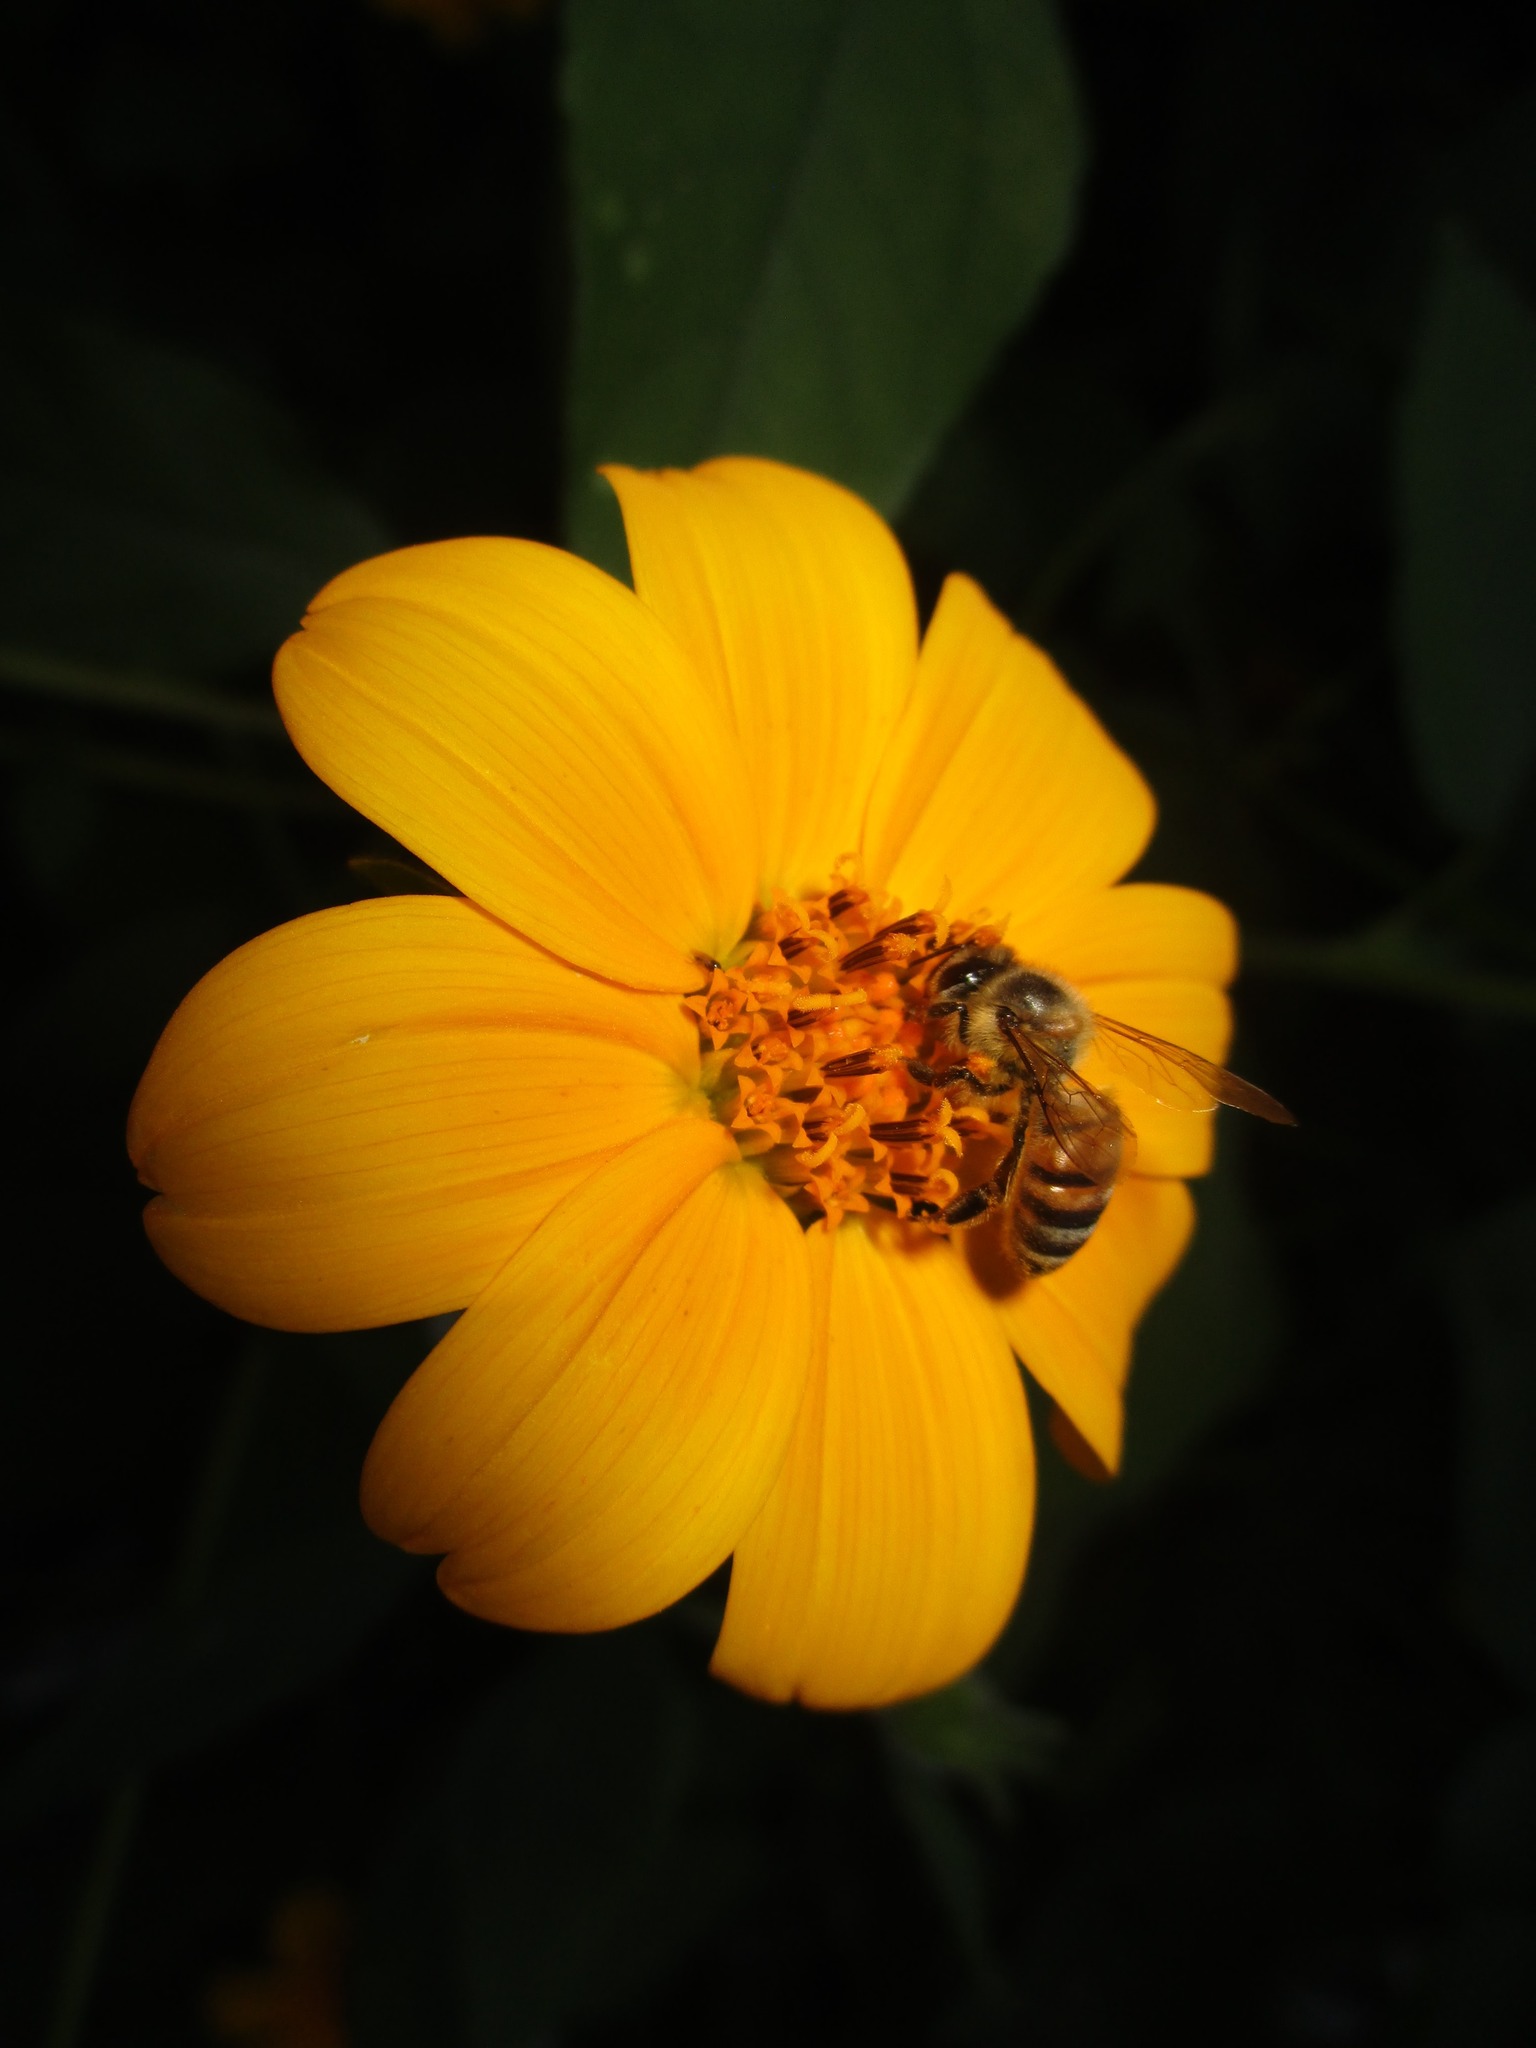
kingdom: Plantae
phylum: Tracheophyta
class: Magnoliopsida
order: Asterales
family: Asteraceae
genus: Tithonia
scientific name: Tithonia rotundifolia
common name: Sunflower
